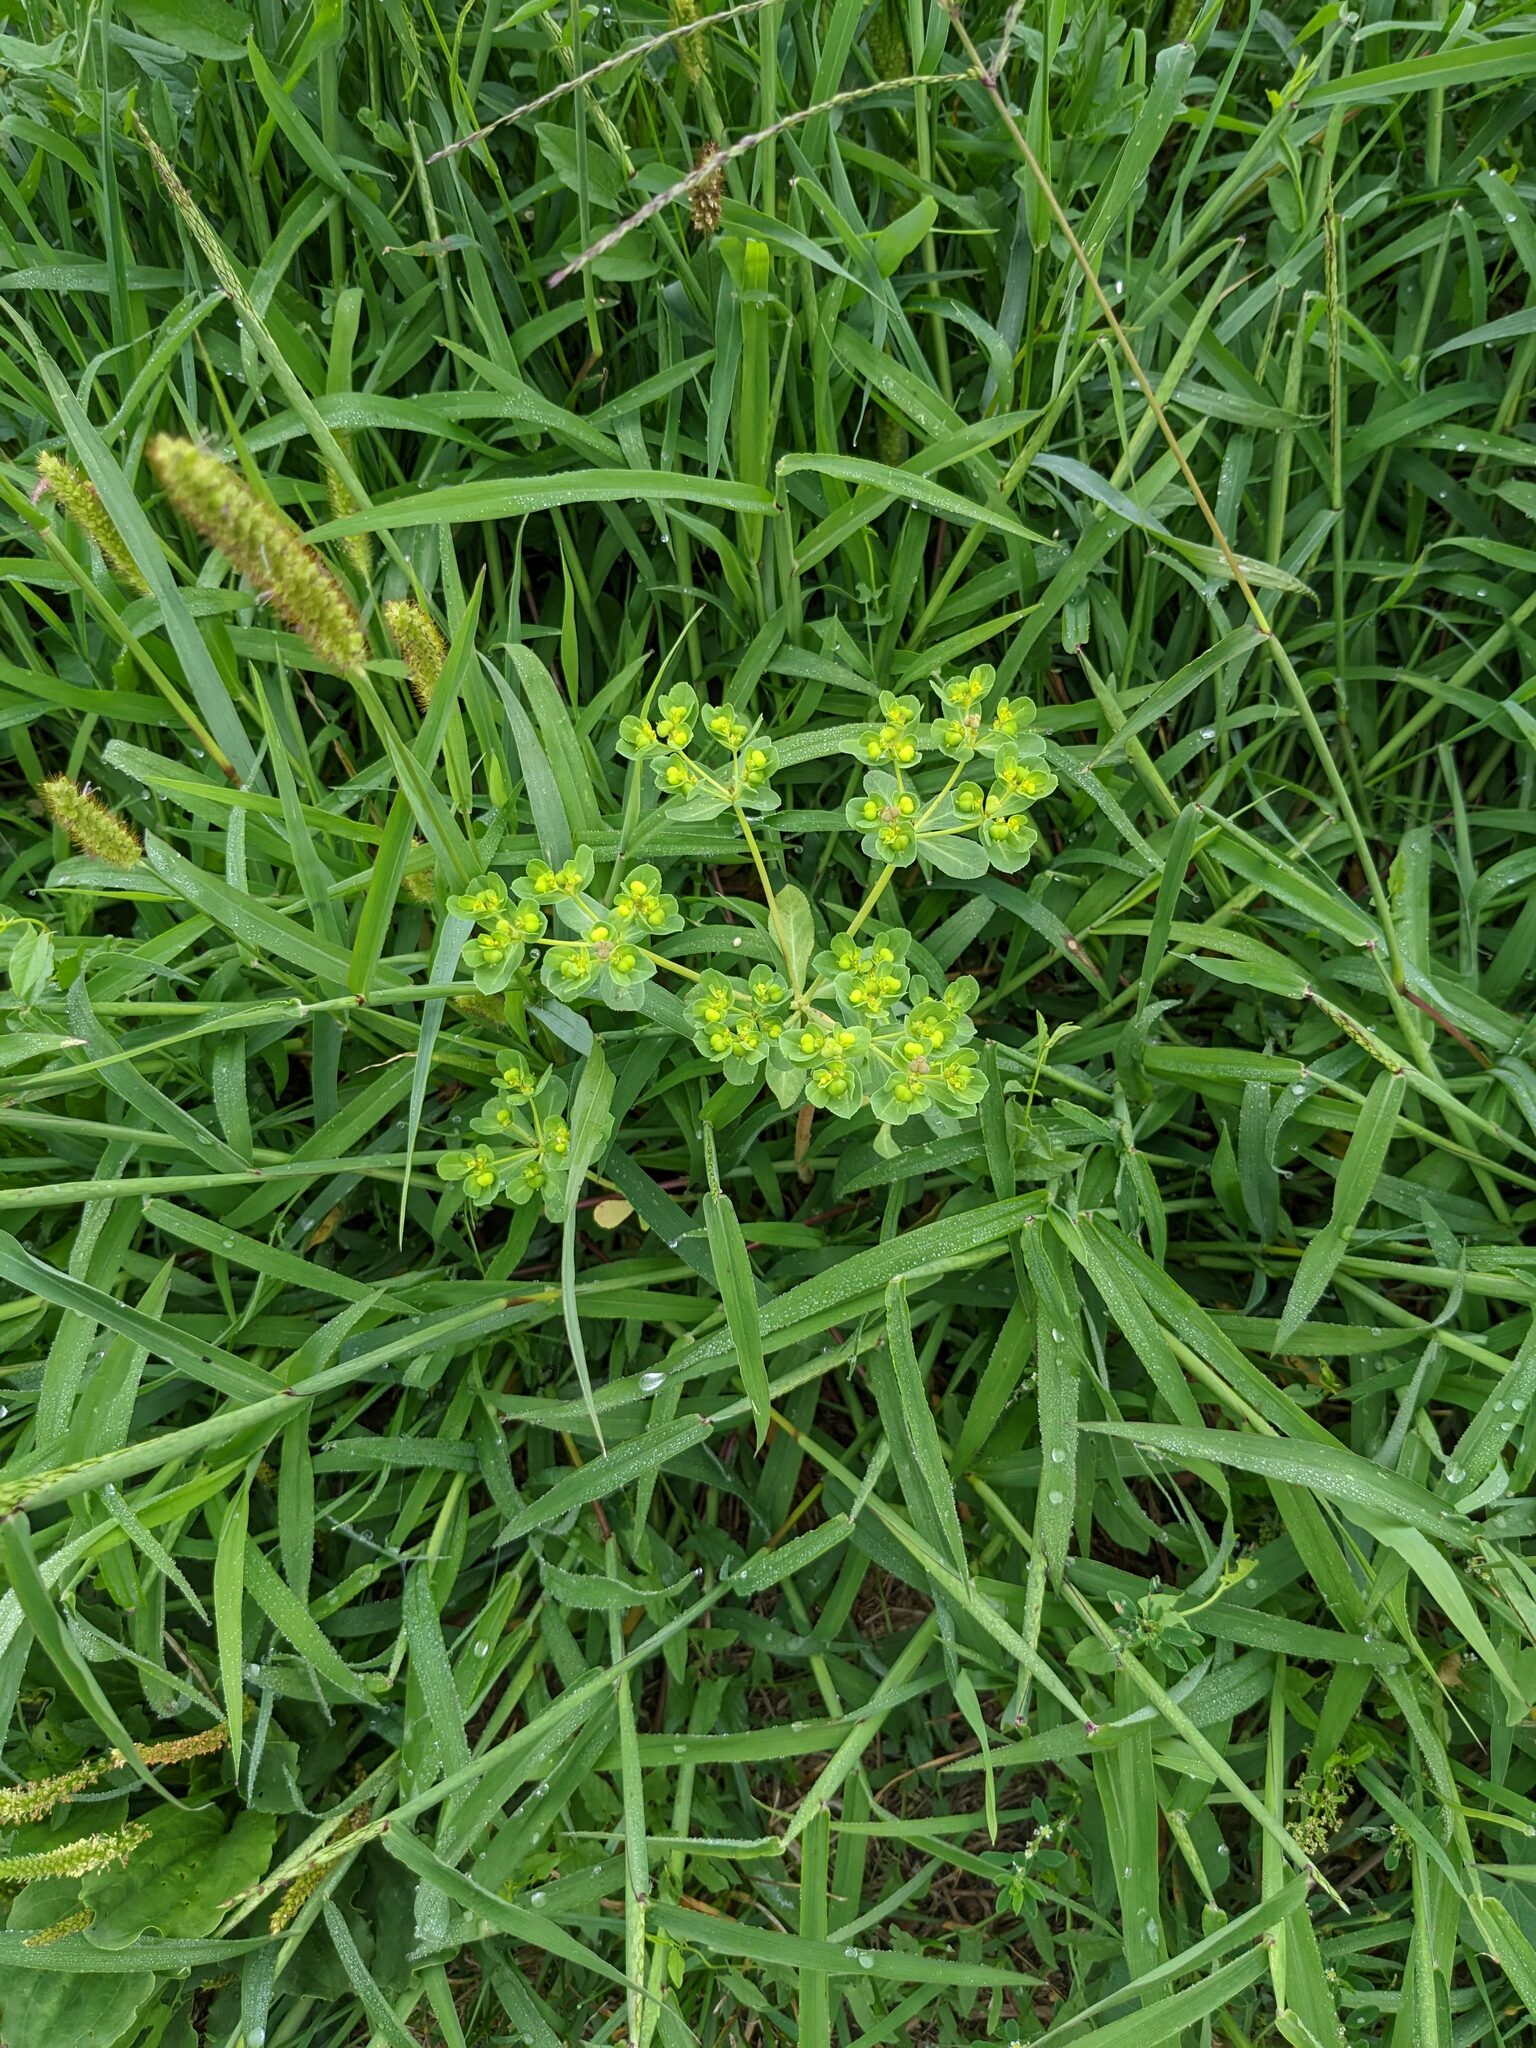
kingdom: Plantae
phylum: Tracheophyta
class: Magnoliopsida
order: Malpighiales
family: Euphorbiaceae
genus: Euphorbia
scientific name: Euphorbia helioscopia
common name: Sun spurge
